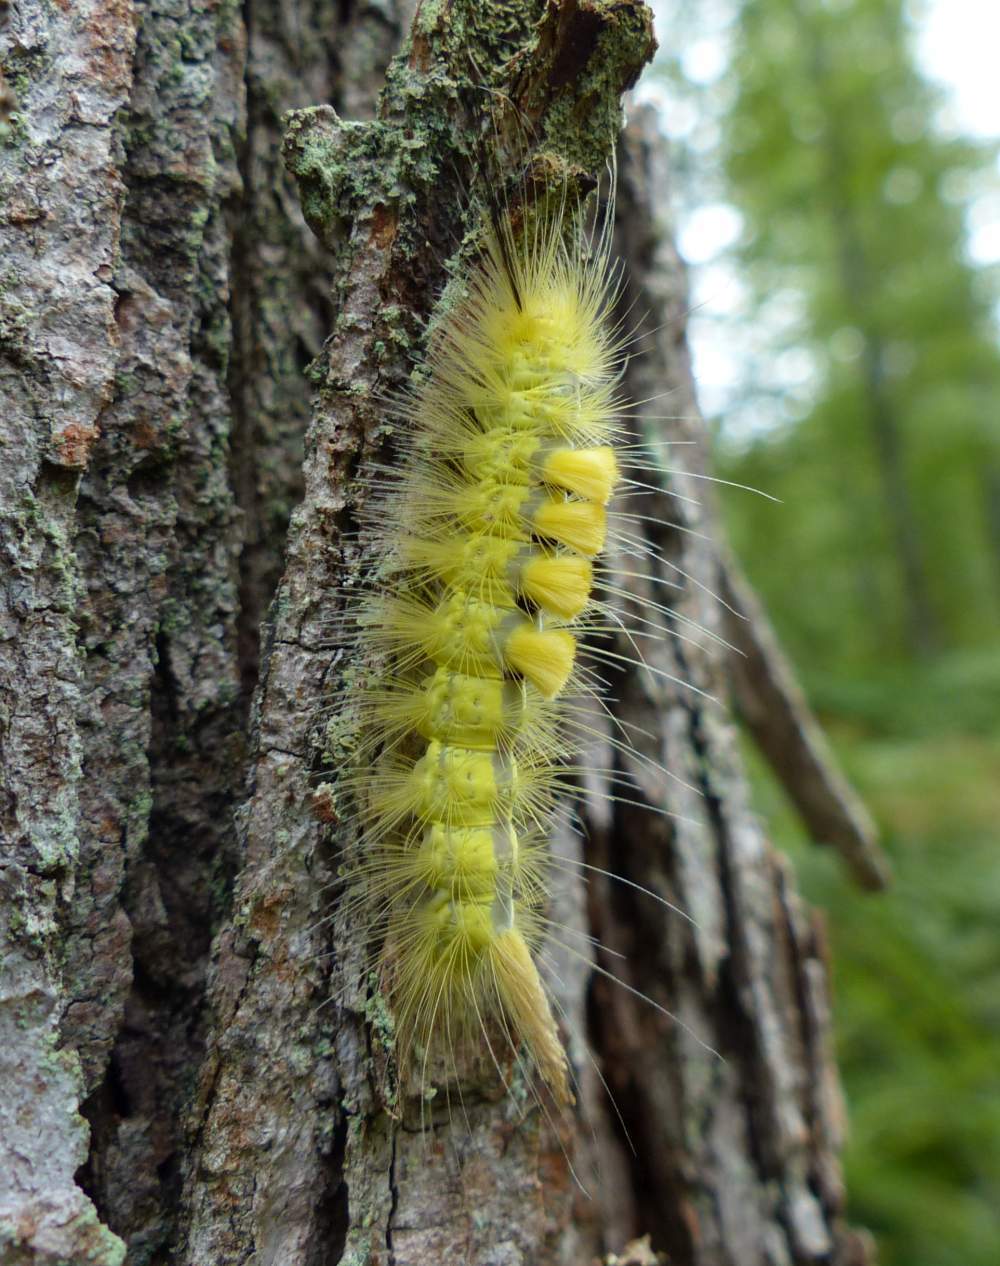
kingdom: Animalia
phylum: Arthropoda
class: Insecta
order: Lepidoptera
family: Erebidae
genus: Orgyia
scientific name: Orgyia definita
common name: Definite tussock moth
